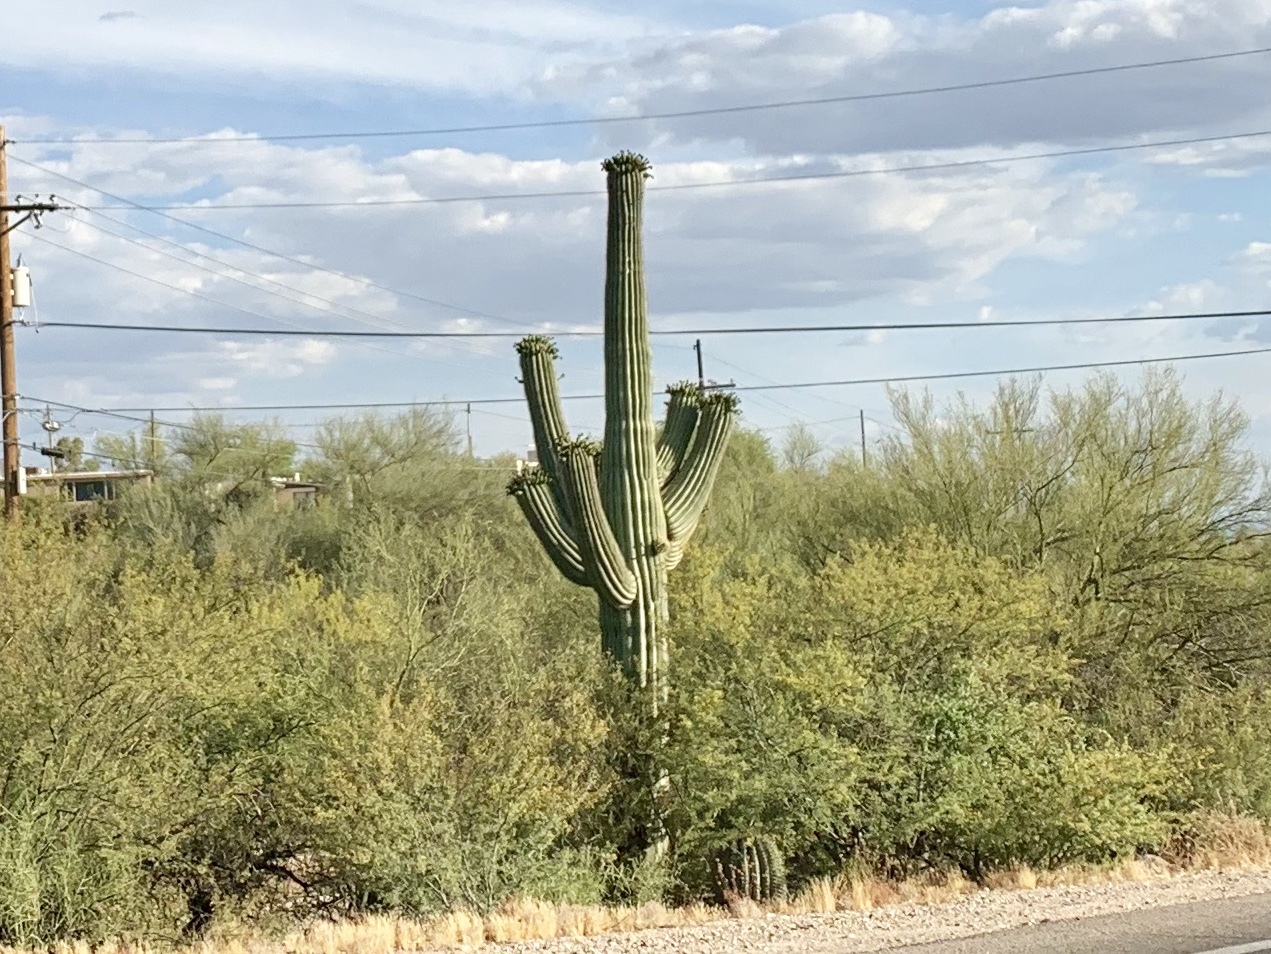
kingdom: Plantae
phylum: Tracheophyta
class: Magnoliopsida
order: Caryophyllales
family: Cactaceae
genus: Carnegiea
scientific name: Carnegiea gigantea
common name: Saguaro
